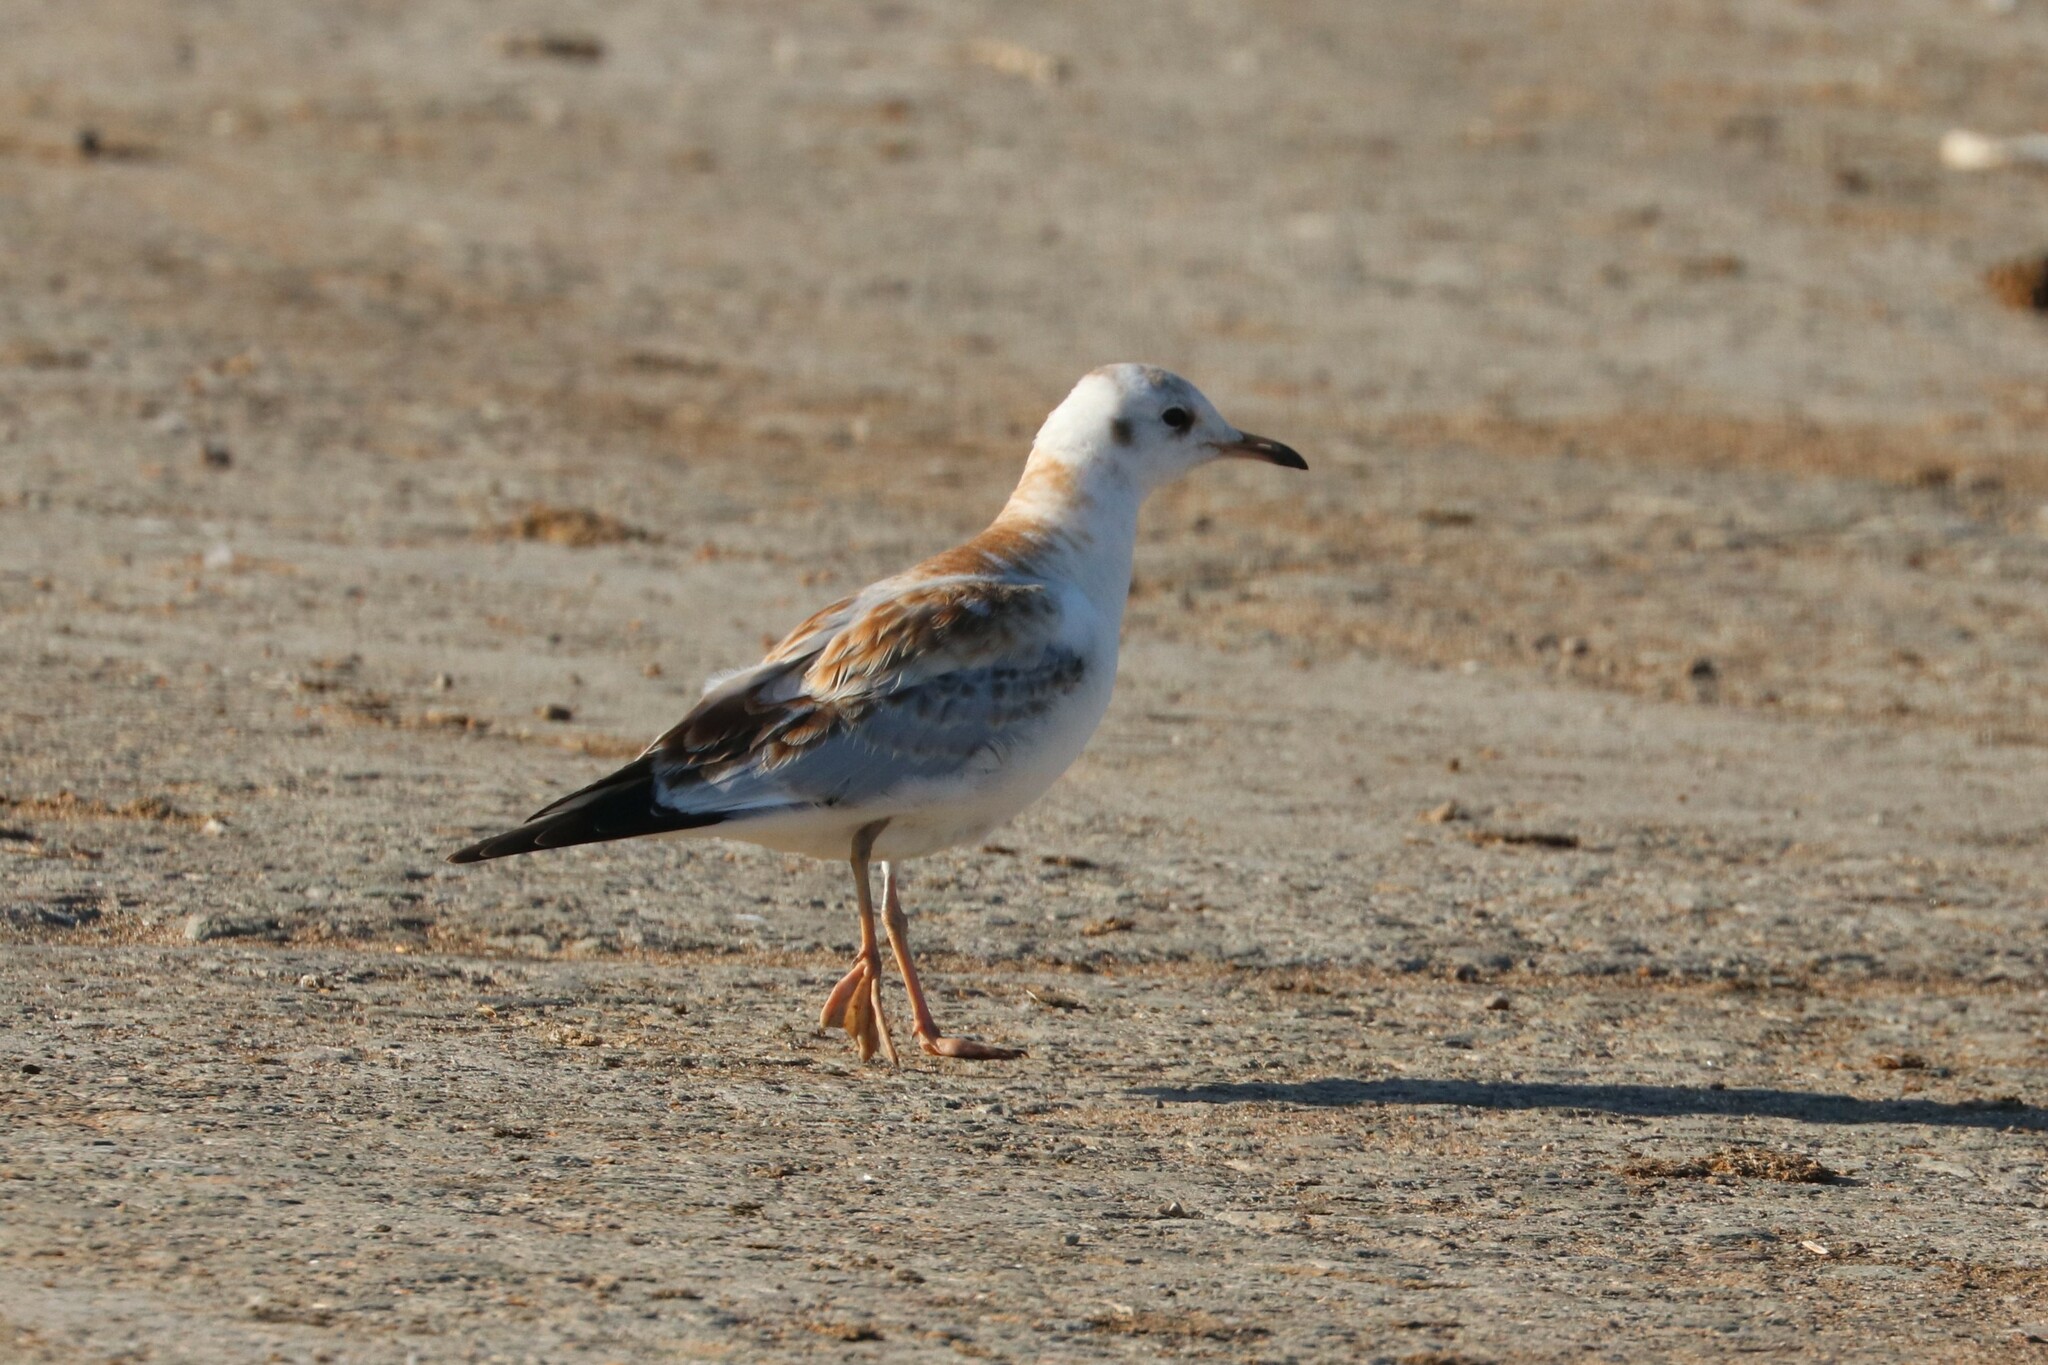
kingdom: Animalia
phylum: Chordata
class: Aves
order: Charadriiformes
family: Laridae
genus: Chroicocephalus
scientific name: Chroicocephalus ridibundus
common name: Black-headed gull
